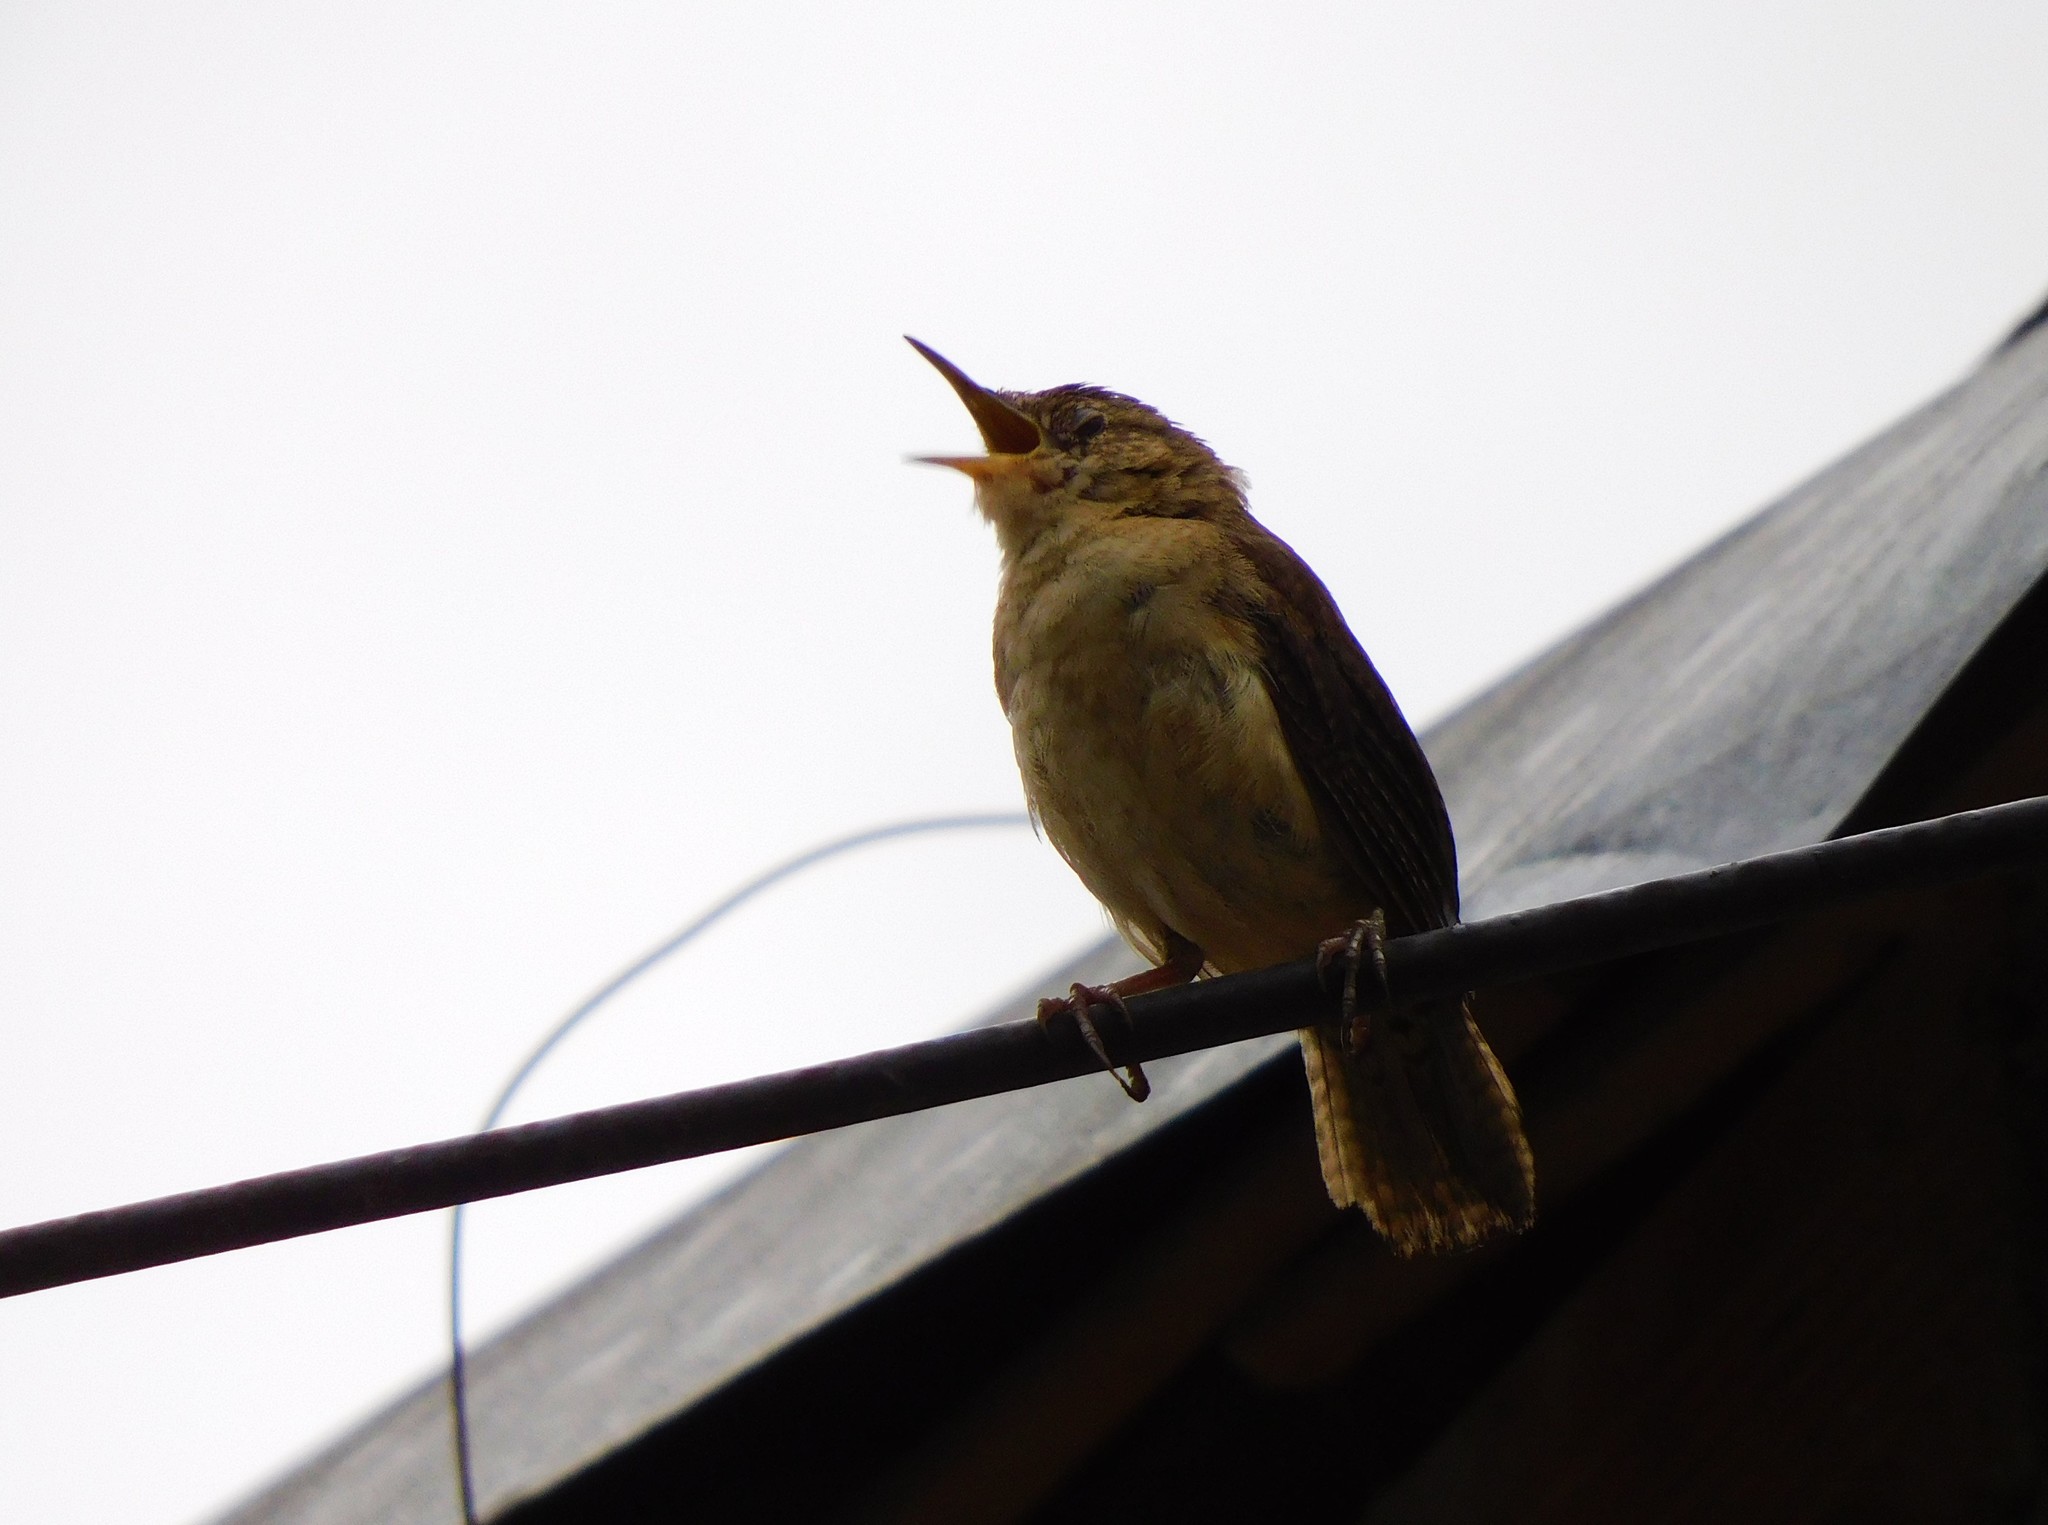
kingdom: Animalia
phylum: Chordata
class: Aves
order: Passeriformes
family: Troglodytidae
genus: Troglodytes
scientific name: Troglodytes aedon
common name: House wren
